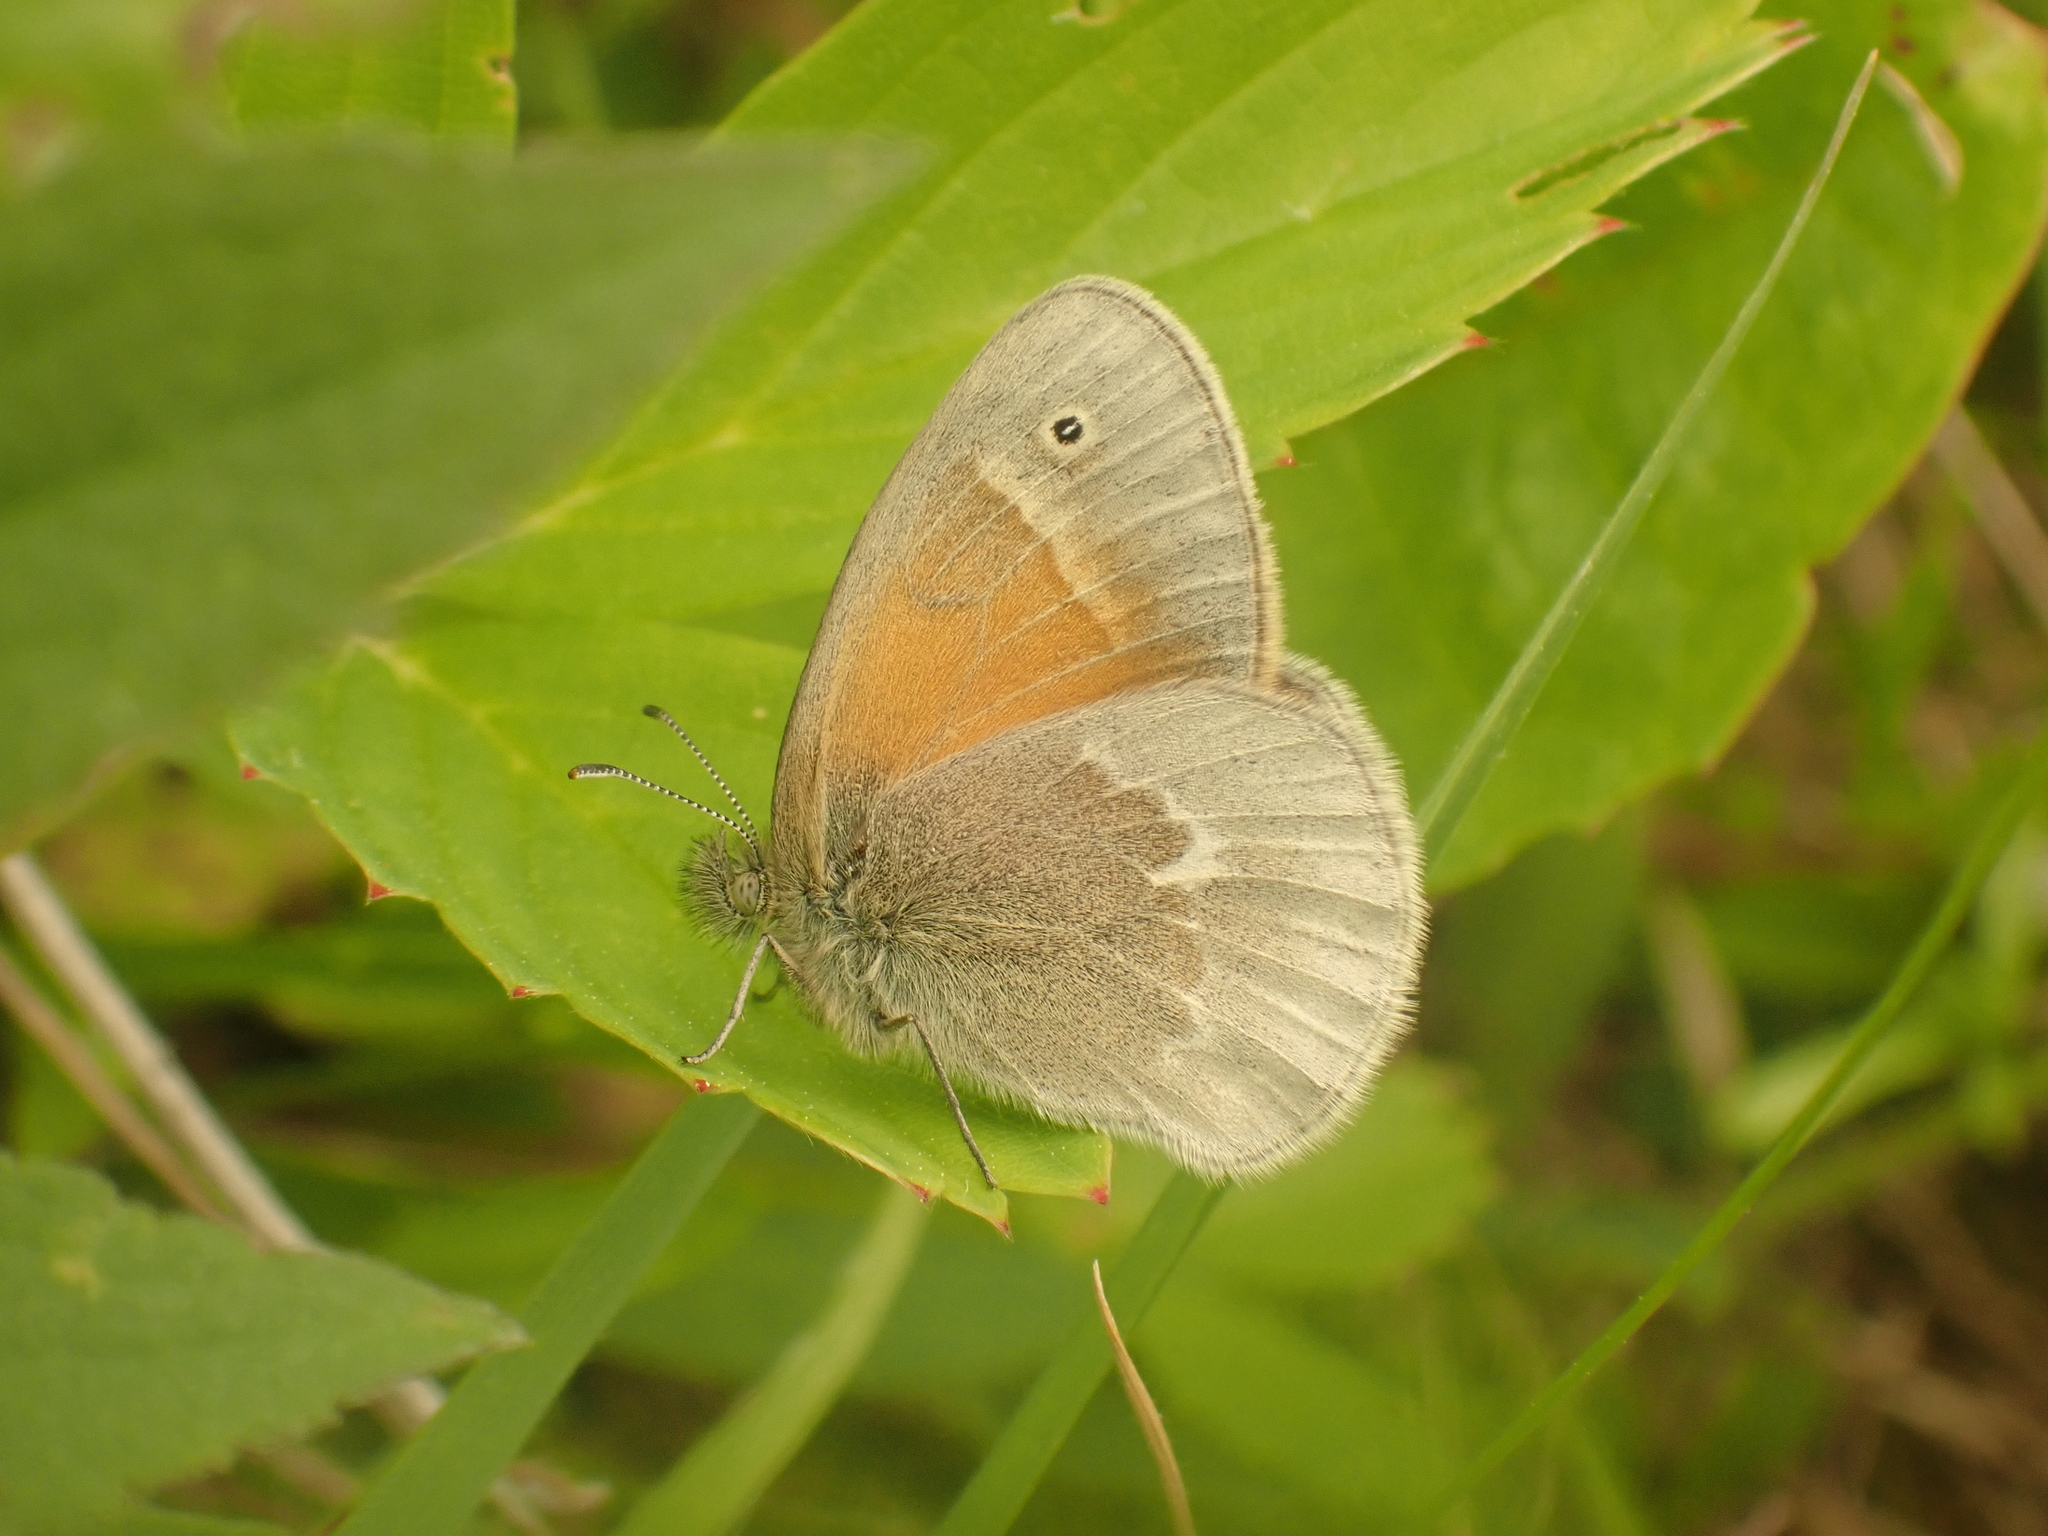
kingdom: Animalia
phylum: Arthropoda
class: Insecta
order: Lepidoptera
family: Nymphalidae
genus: Coenonympha
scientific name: Coenonympha california
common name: Common ringlet
